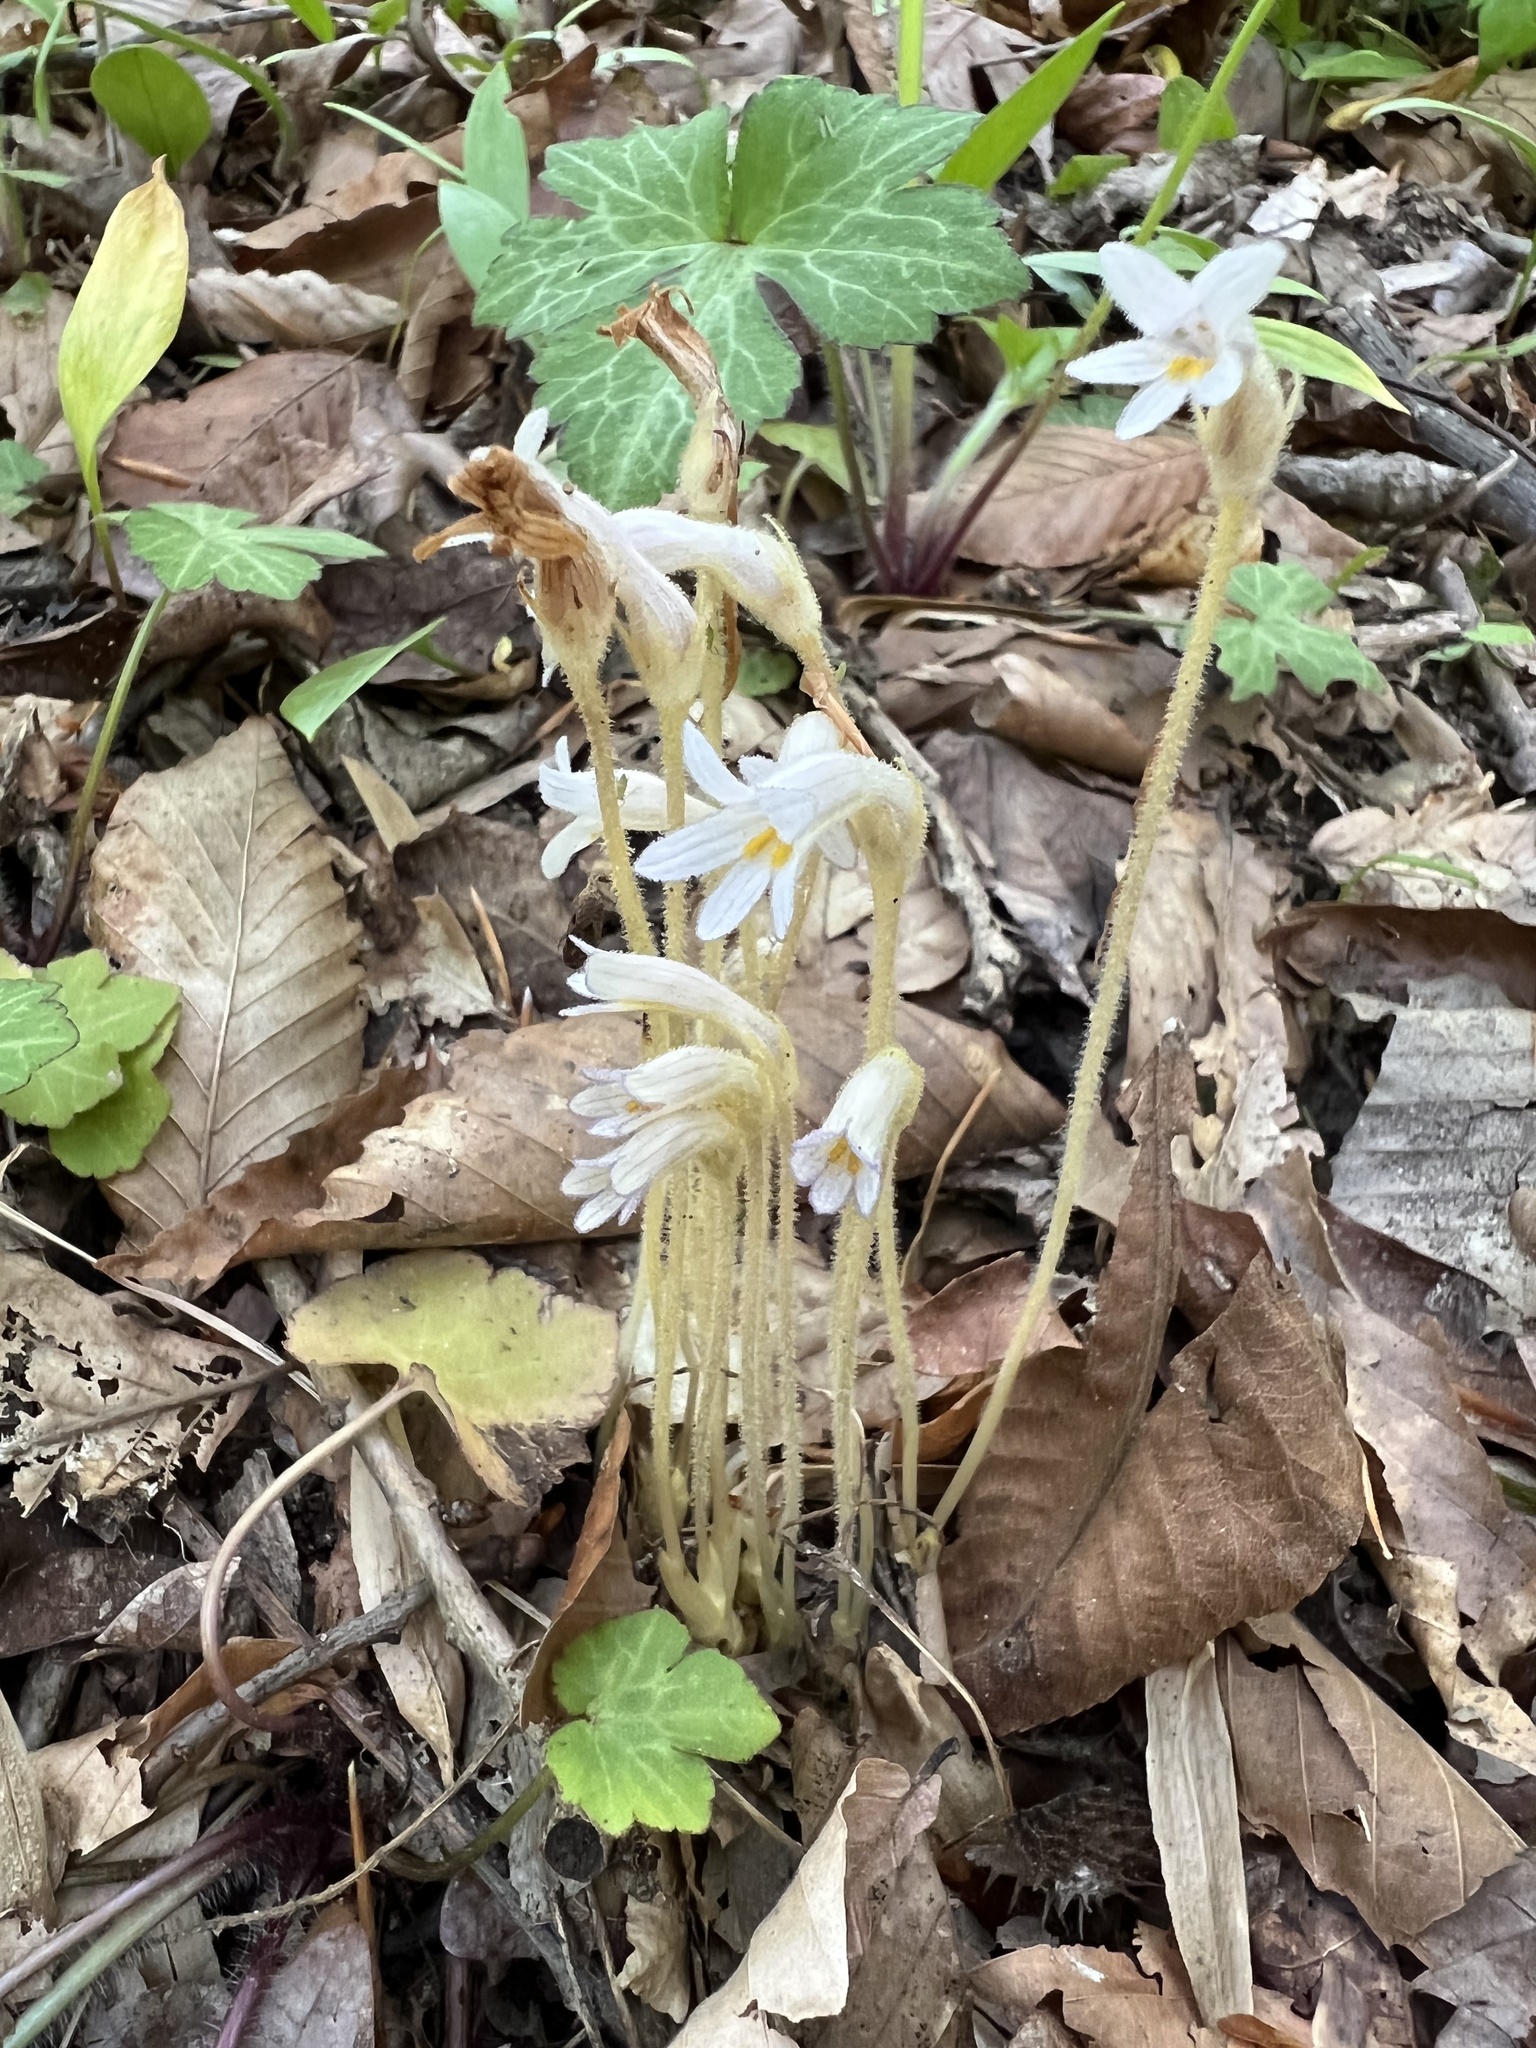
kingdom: Plantae
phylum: Tracheophyta
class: Magnoliopsida
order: Lamiales
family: Orobanchaceae
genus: Aphyllon
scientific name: Aphyllon uniflorum
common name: One-flowered broomrape
